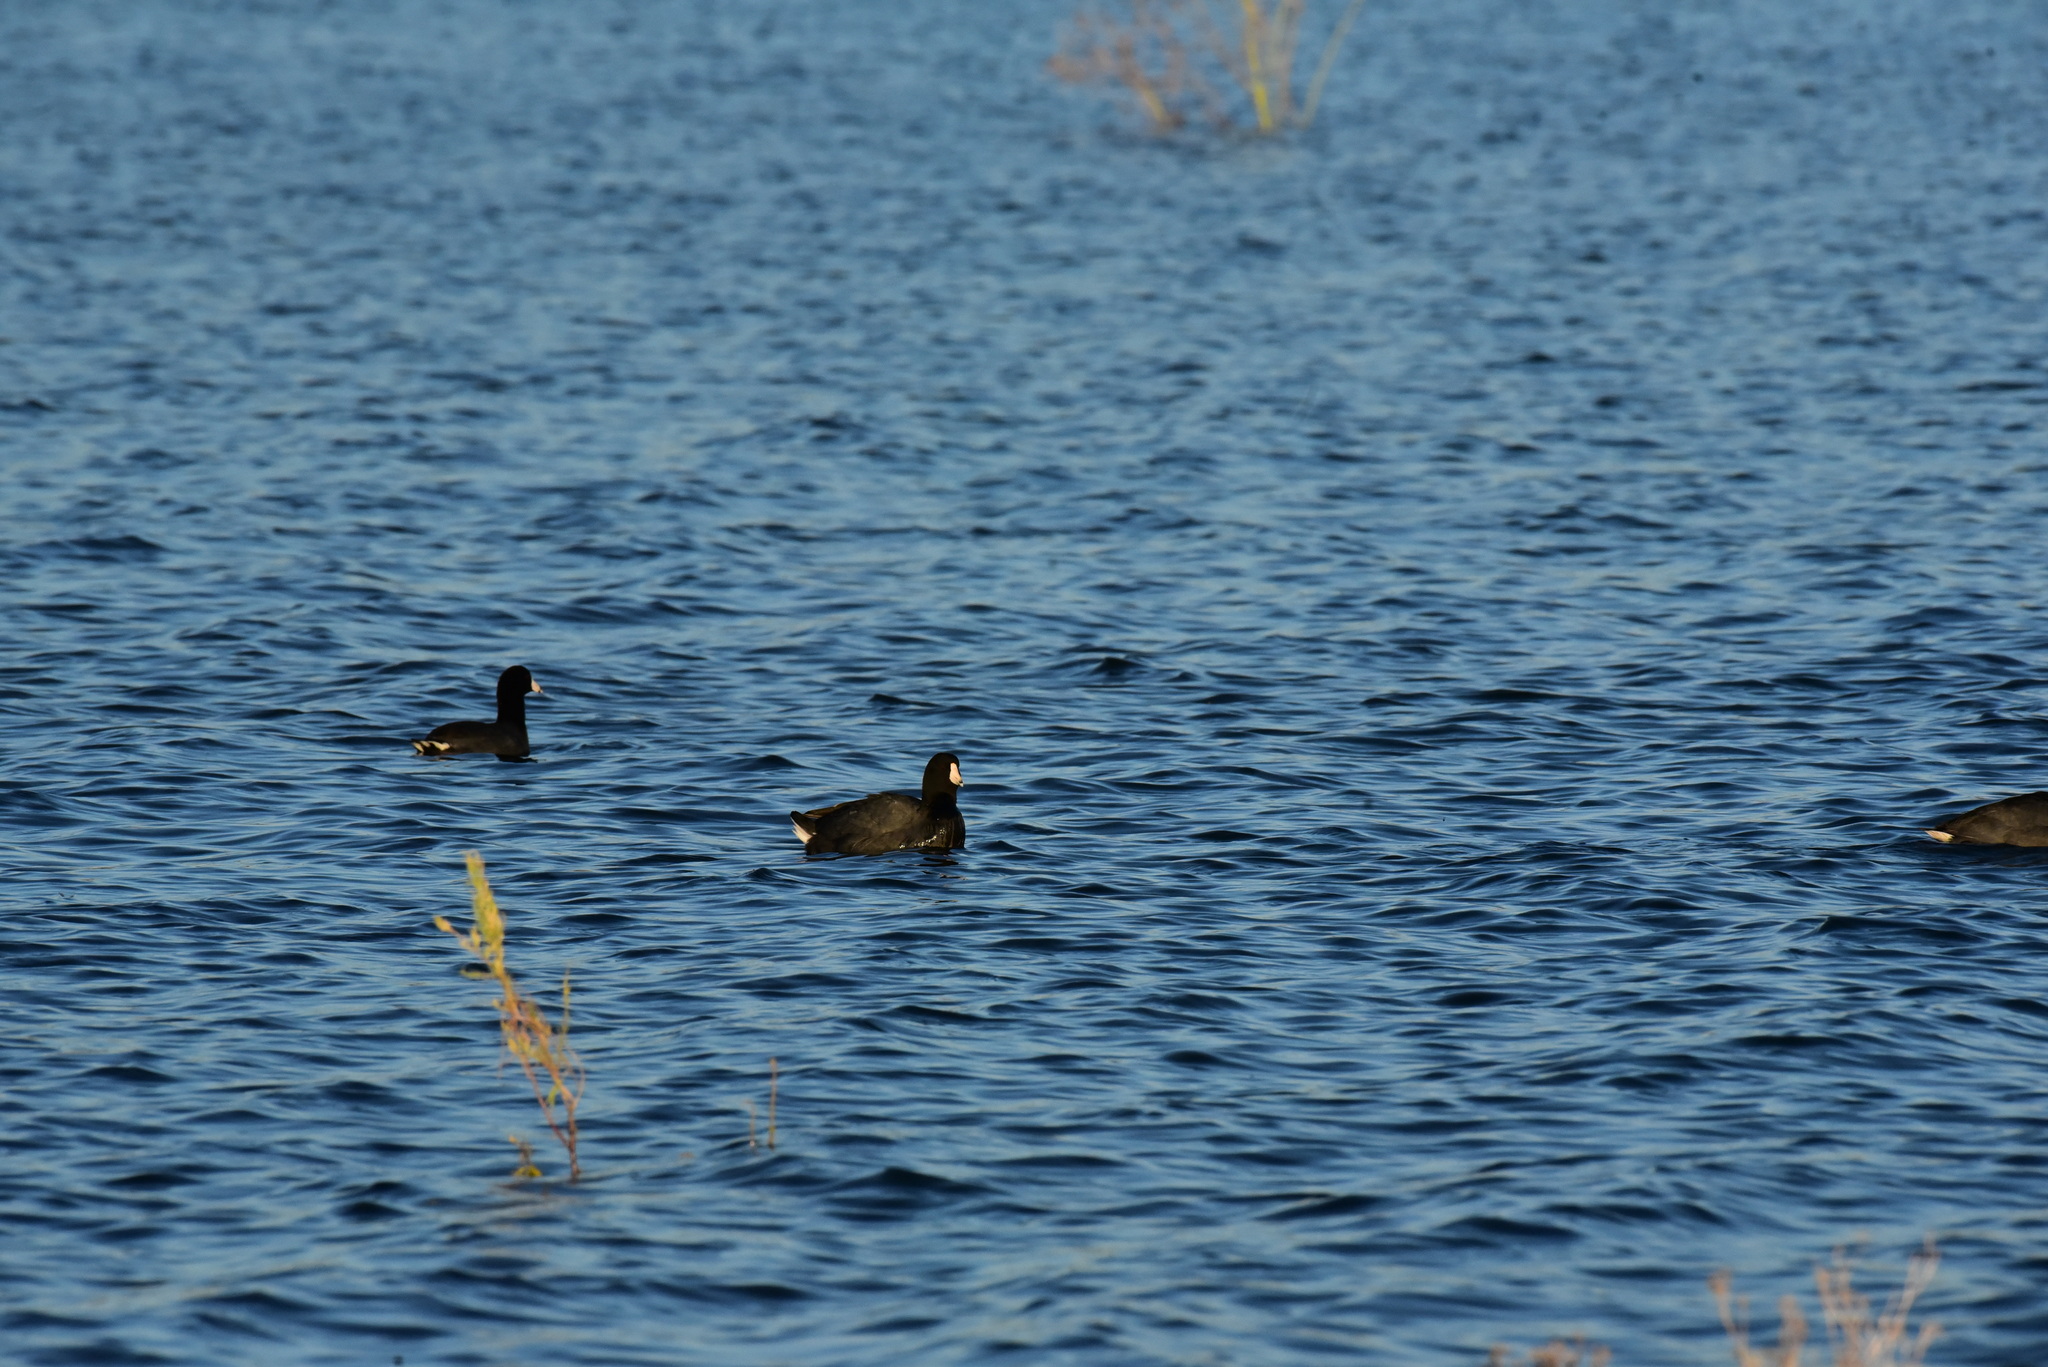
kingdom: Animalia
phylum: Chordata
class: Aves
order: Gruiformes
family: Rallidae
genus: Fulica
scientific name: Fulica americana
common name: American coot
